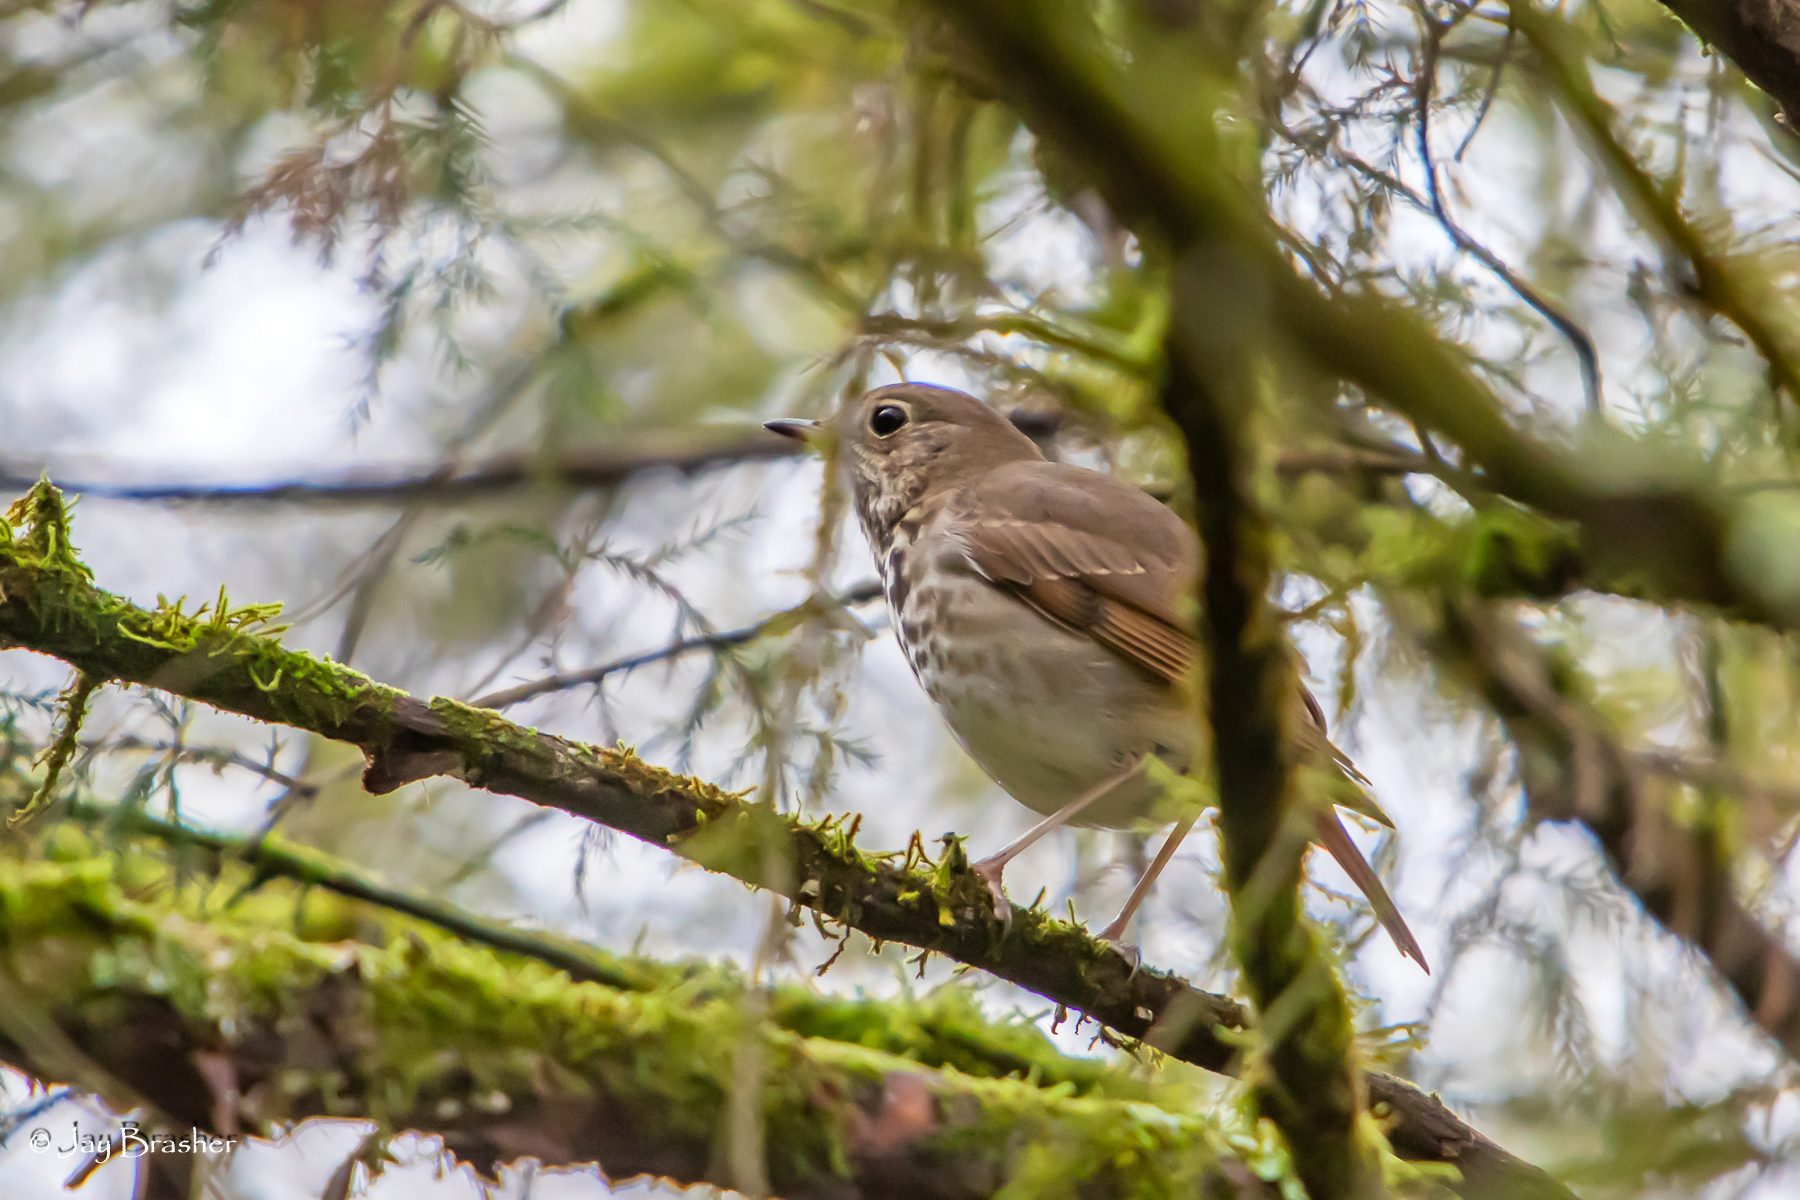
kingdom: Animalia
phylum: Chordata
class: Aves
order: Passeriformes
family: Turdidae
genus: Catharus
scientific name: Catharus guttatus
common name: Hermit thrush
